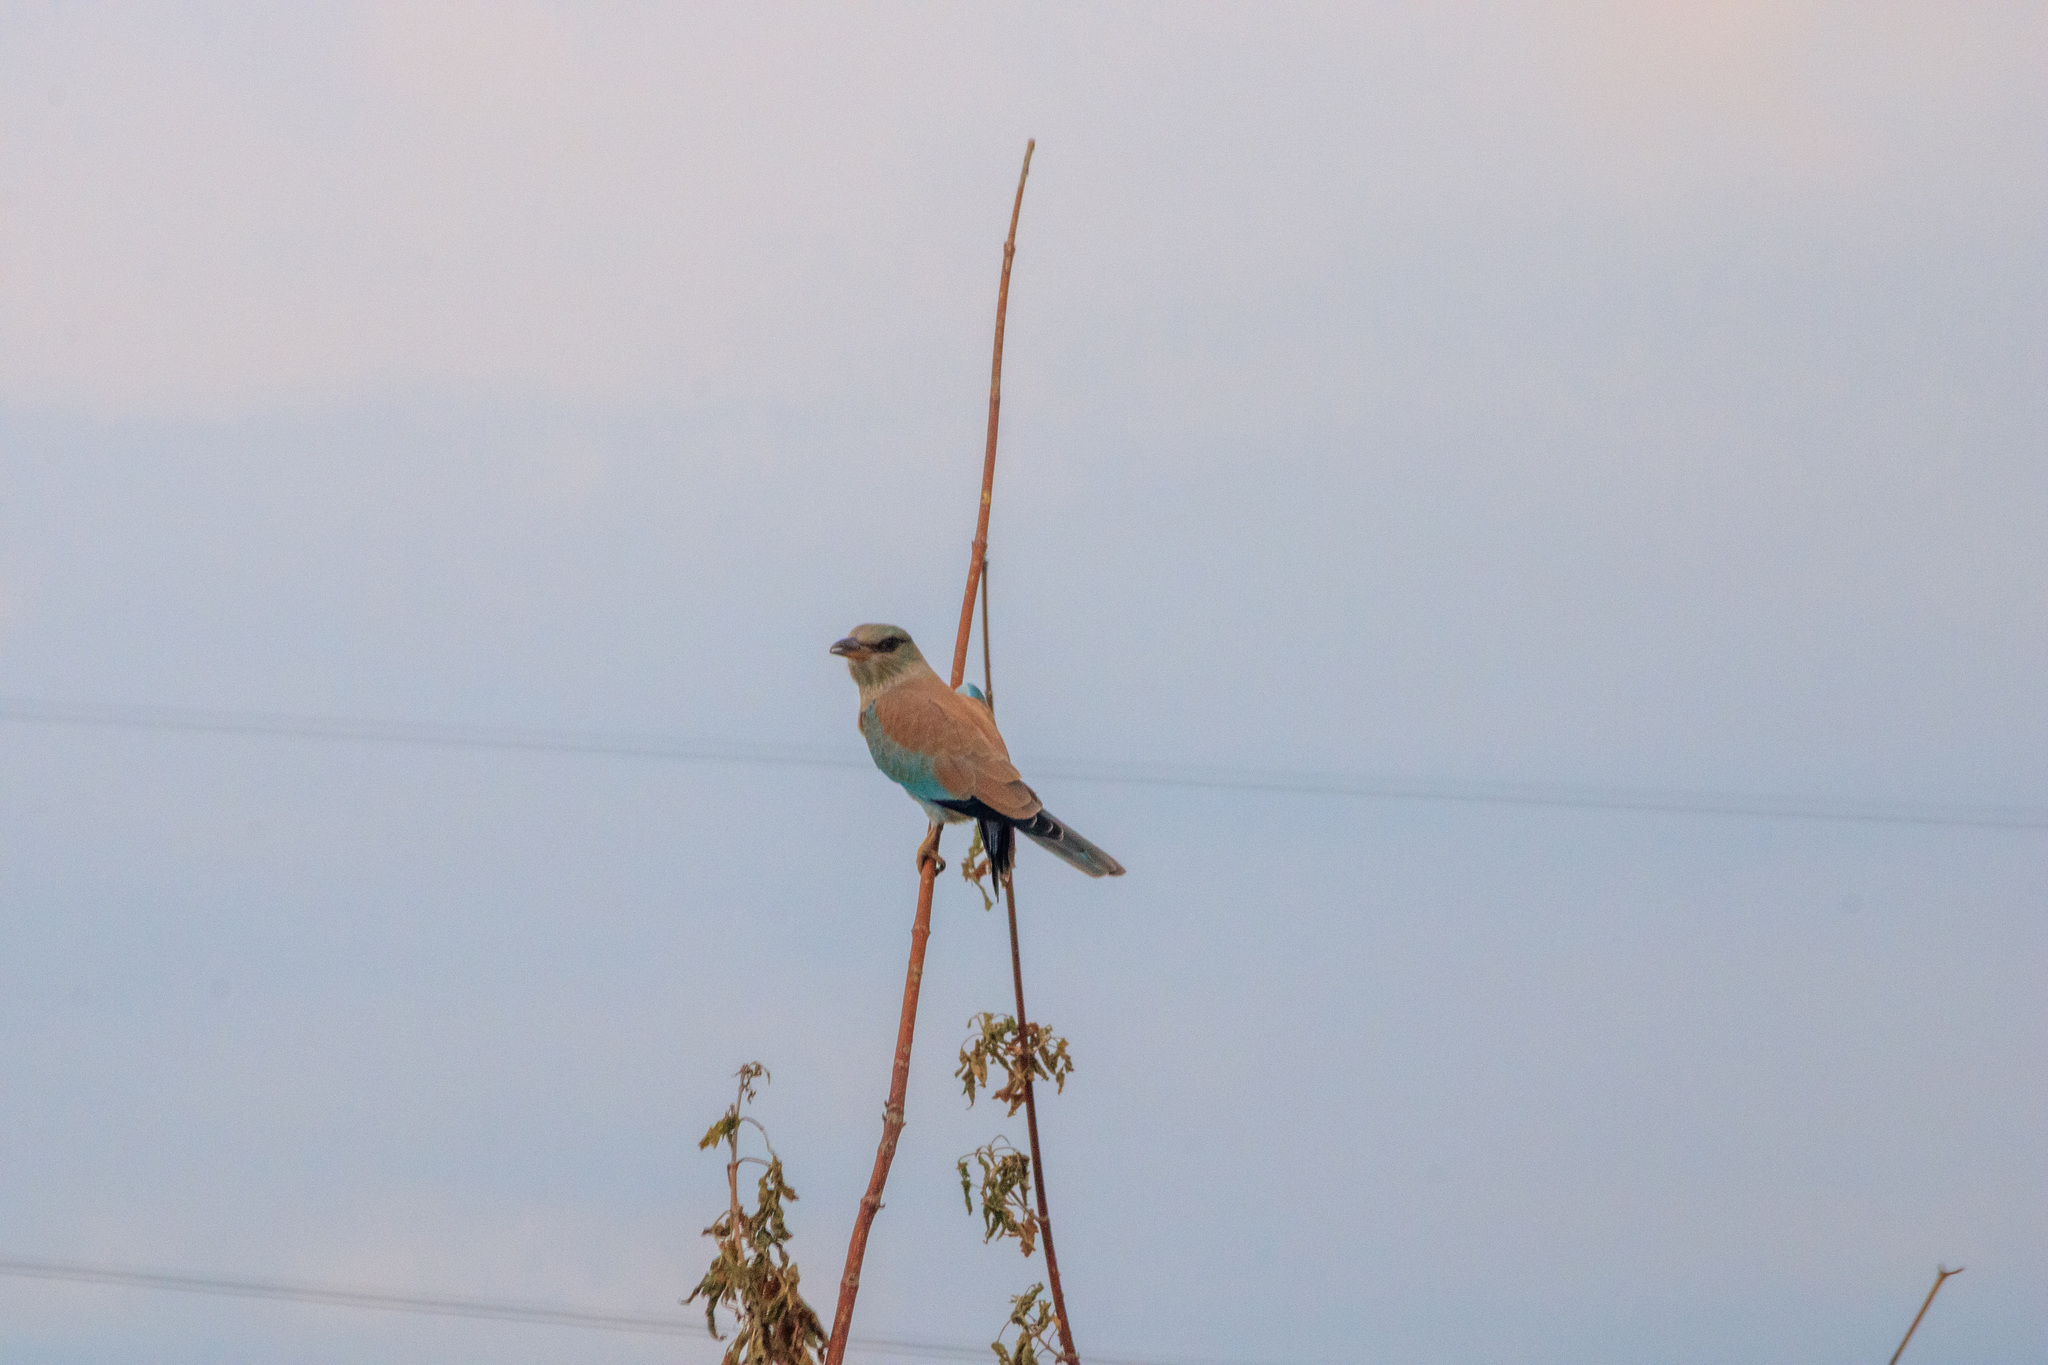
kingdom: Animalia
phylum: Chordata
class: Aves
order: Coraciiformes
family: Coraciidae
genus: Coracias
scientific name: Coracias garrulus
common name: European roller
